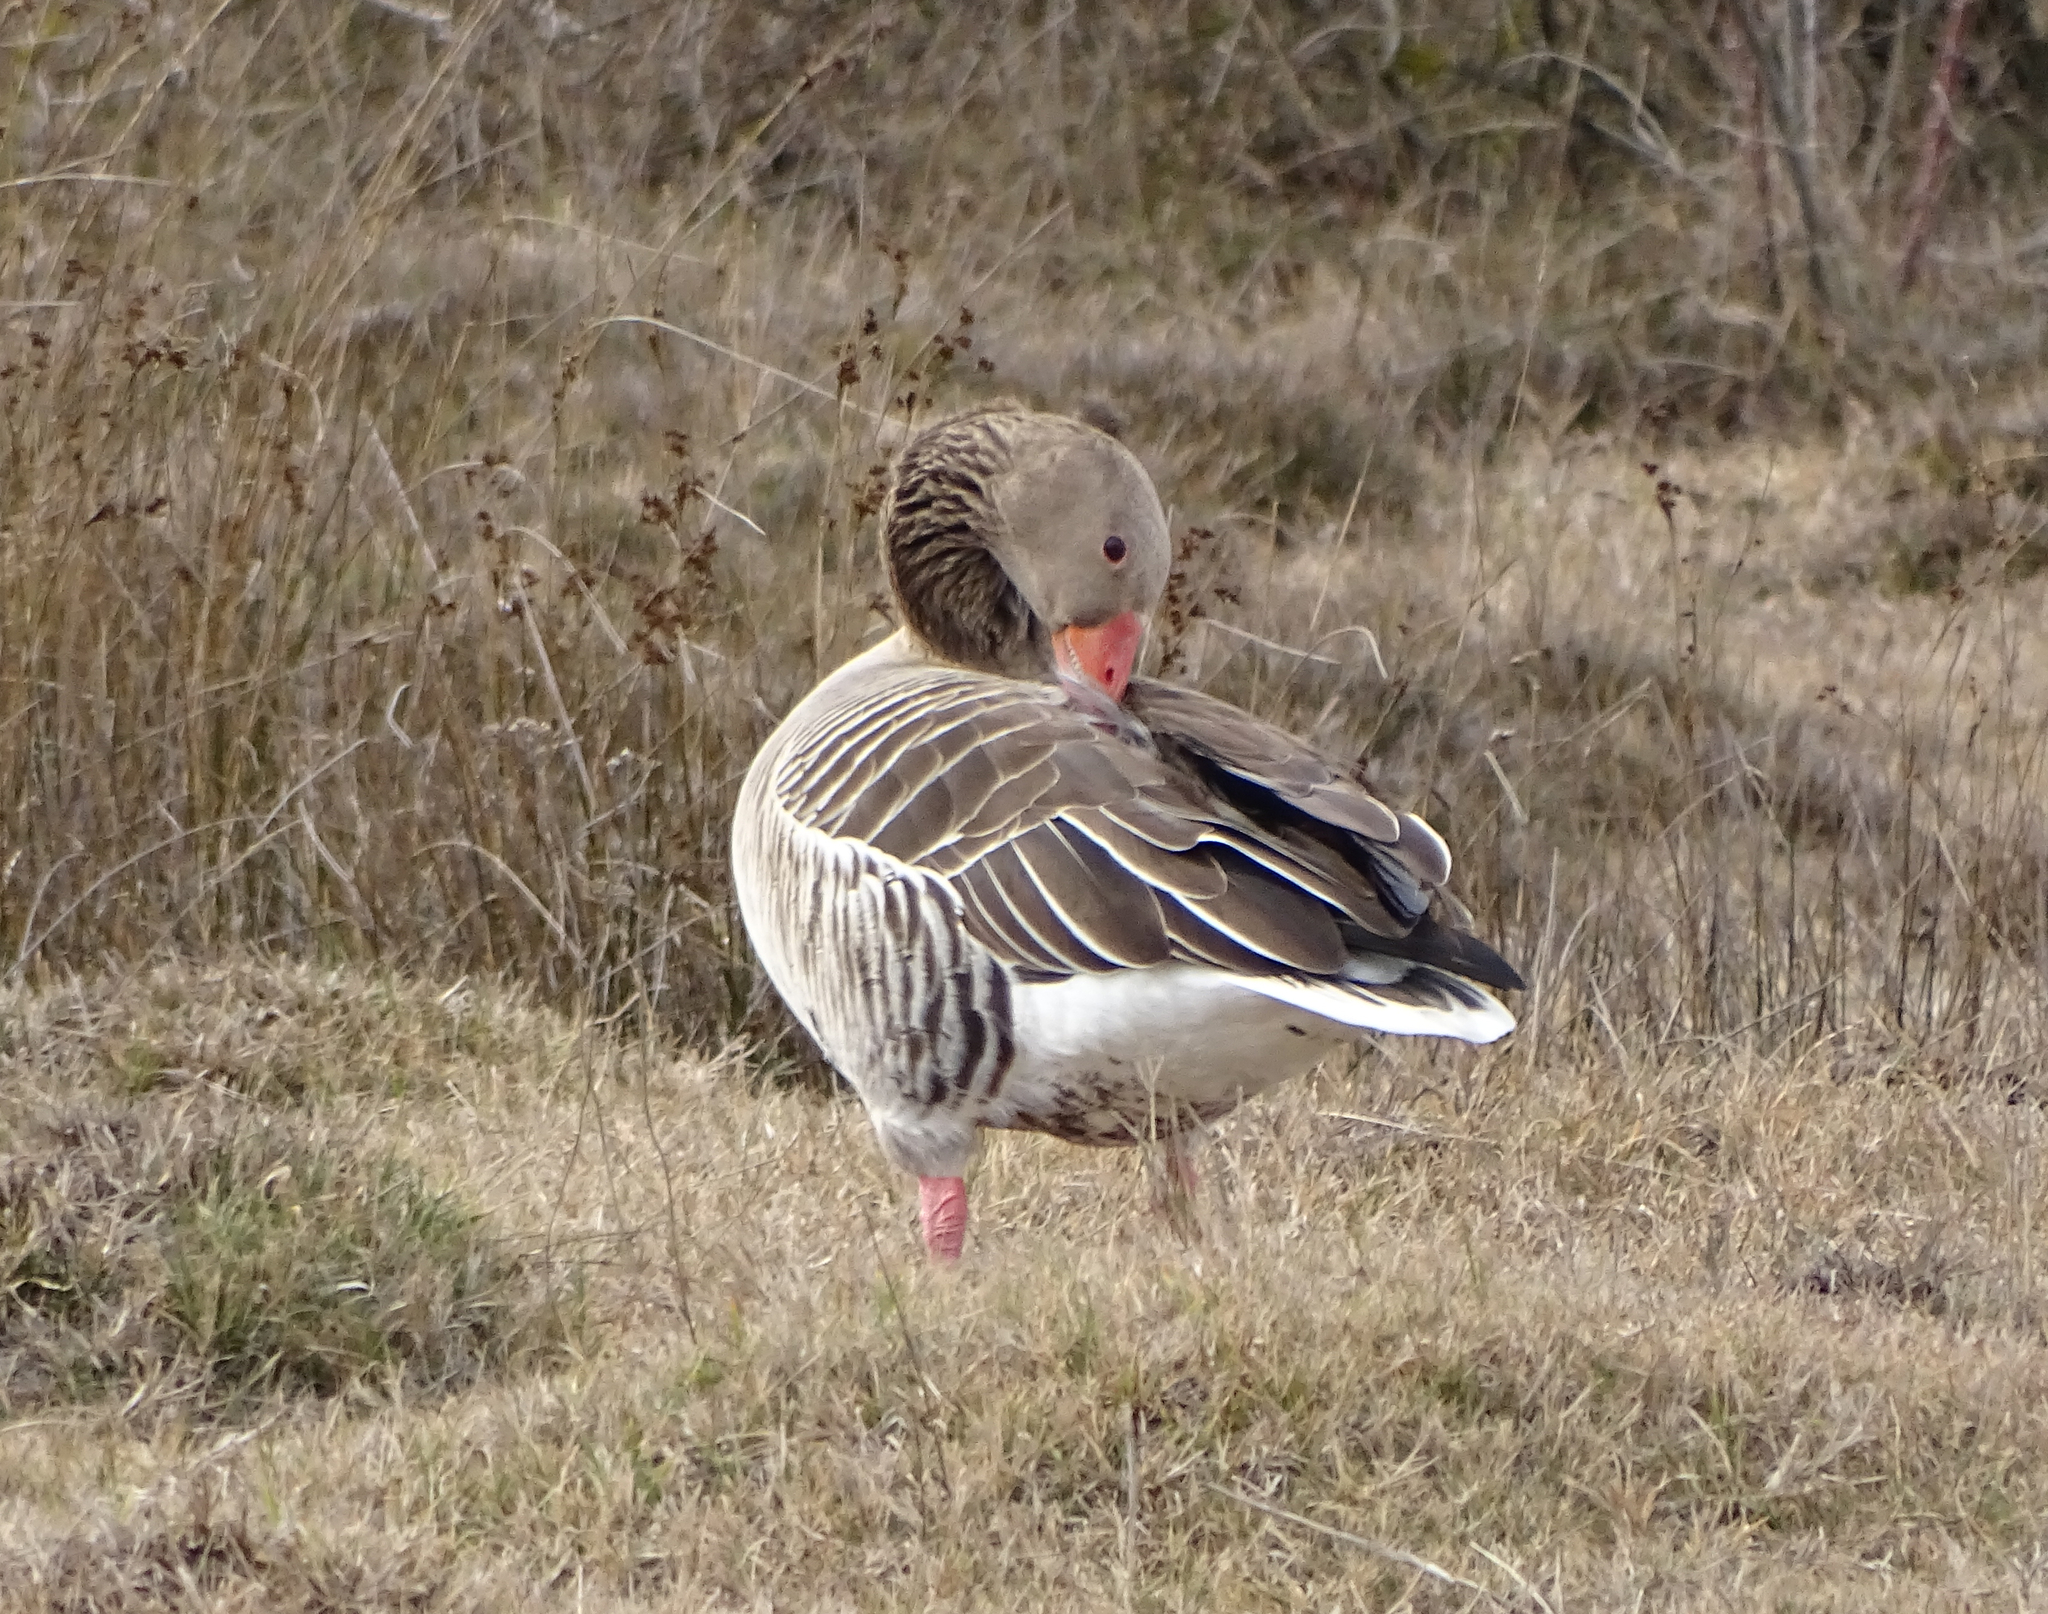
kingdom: Animalia
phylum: Chordata
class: Aves
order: Anseriformes
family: Anatidae
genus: Anser
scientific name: Anser anser
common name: Greylag goose
